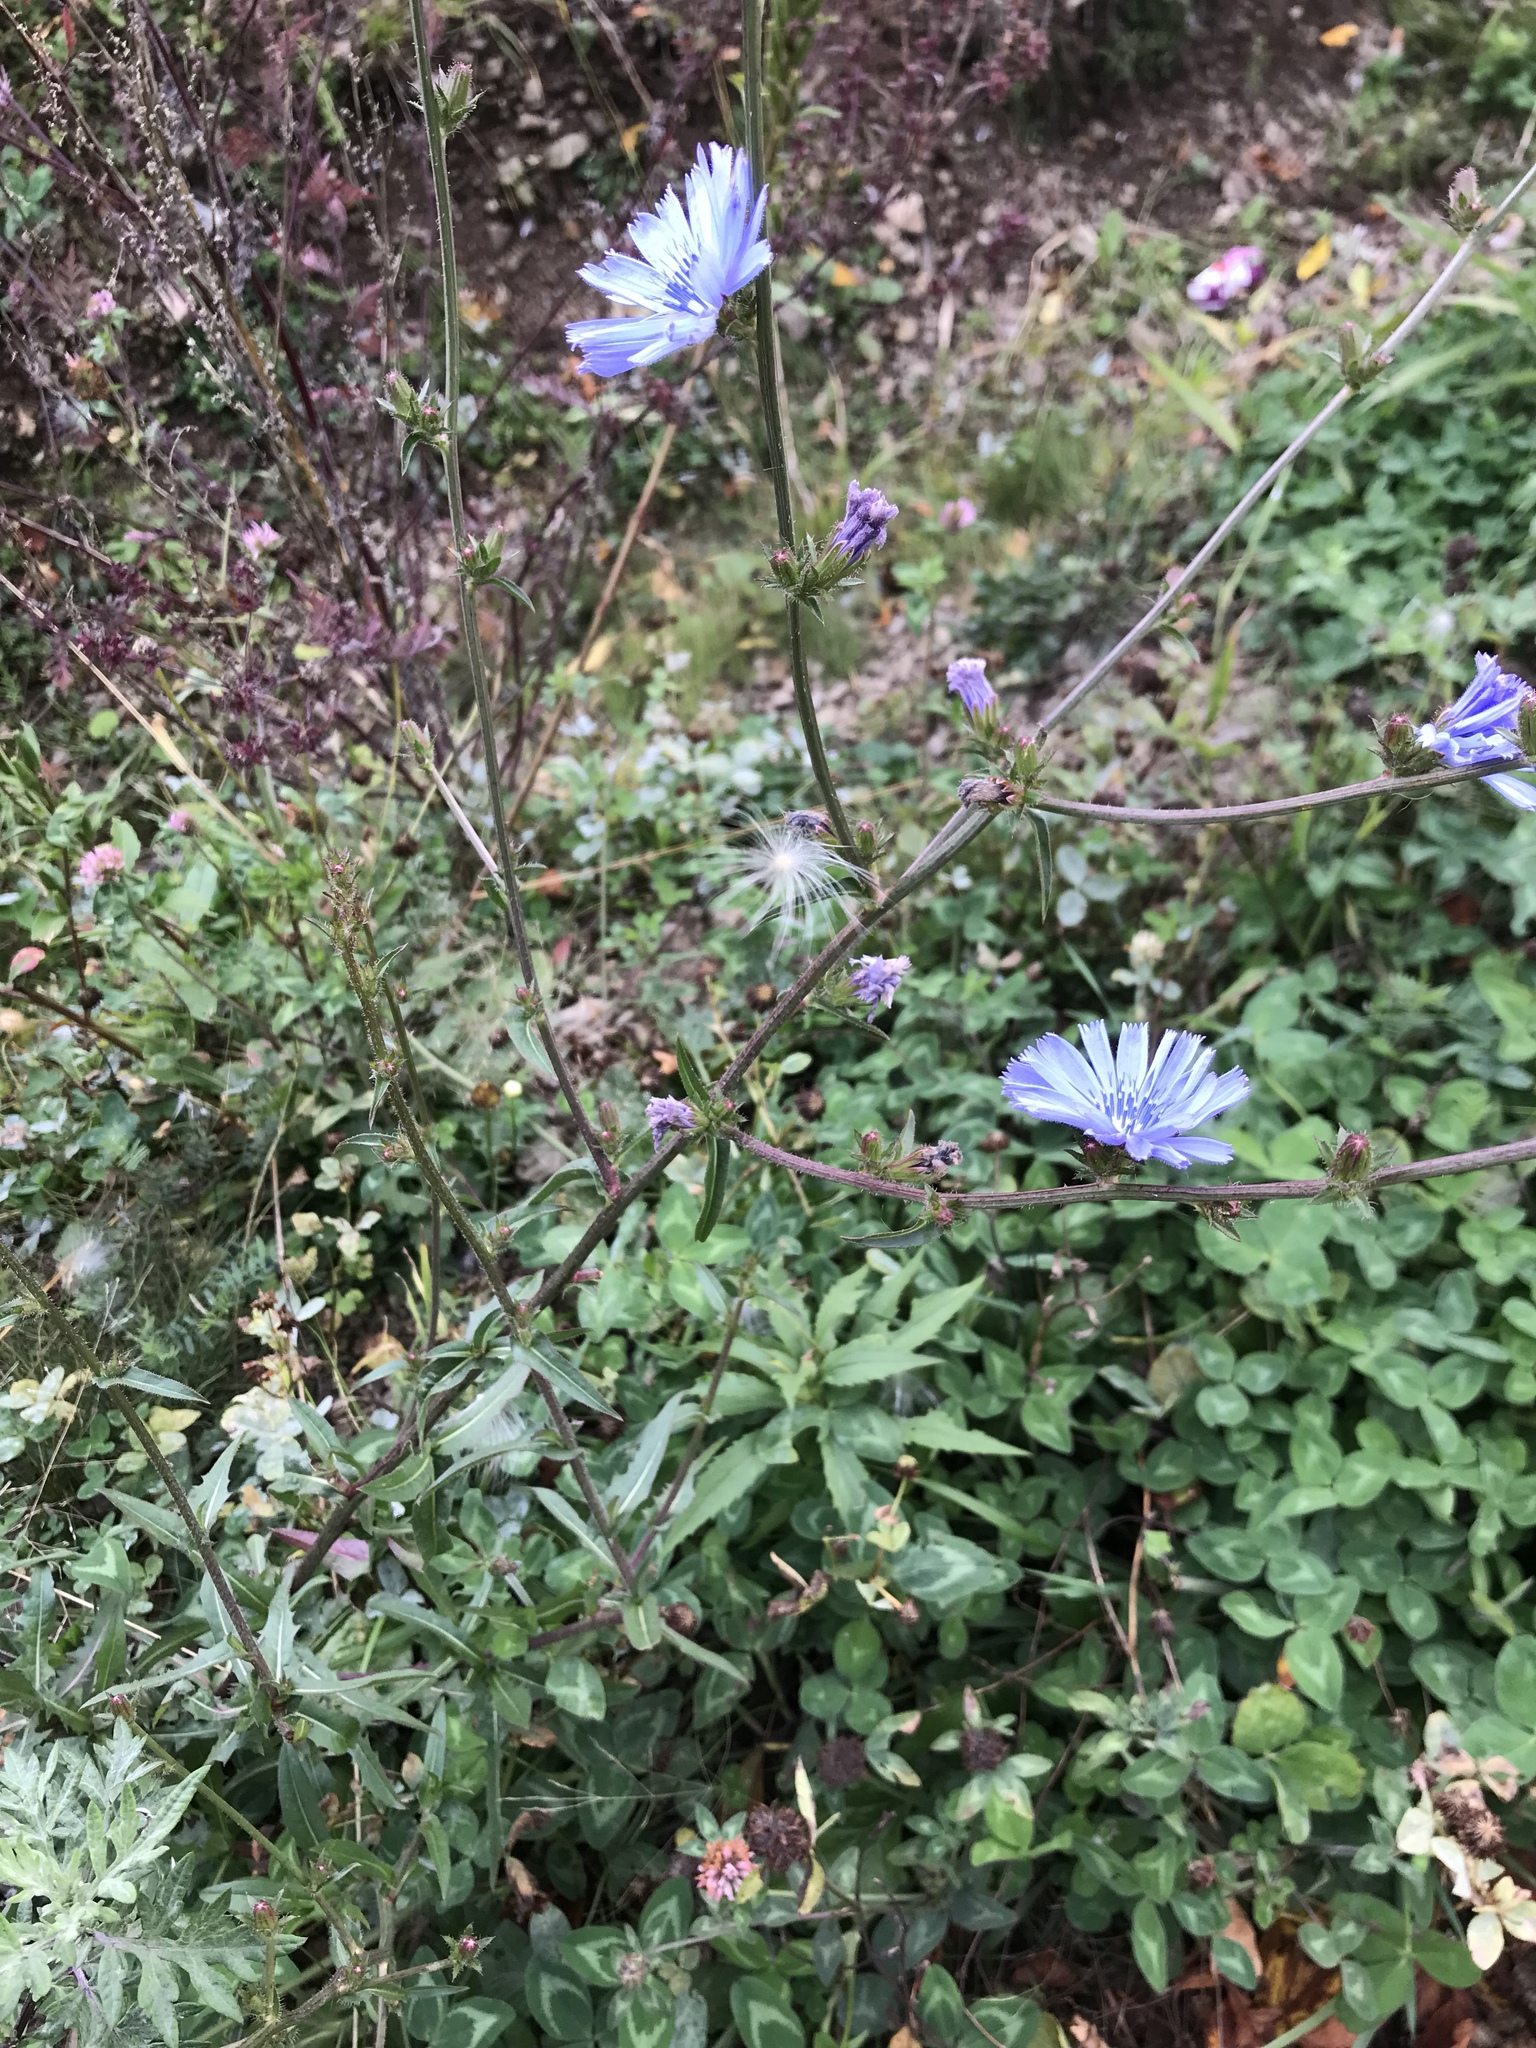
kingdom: Plantae
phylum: Tracheophyta
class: Magnoliopsida
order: Asterales
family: Asteraceae
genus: Cichorium
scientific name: Cichorium intybus
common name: Chicory
